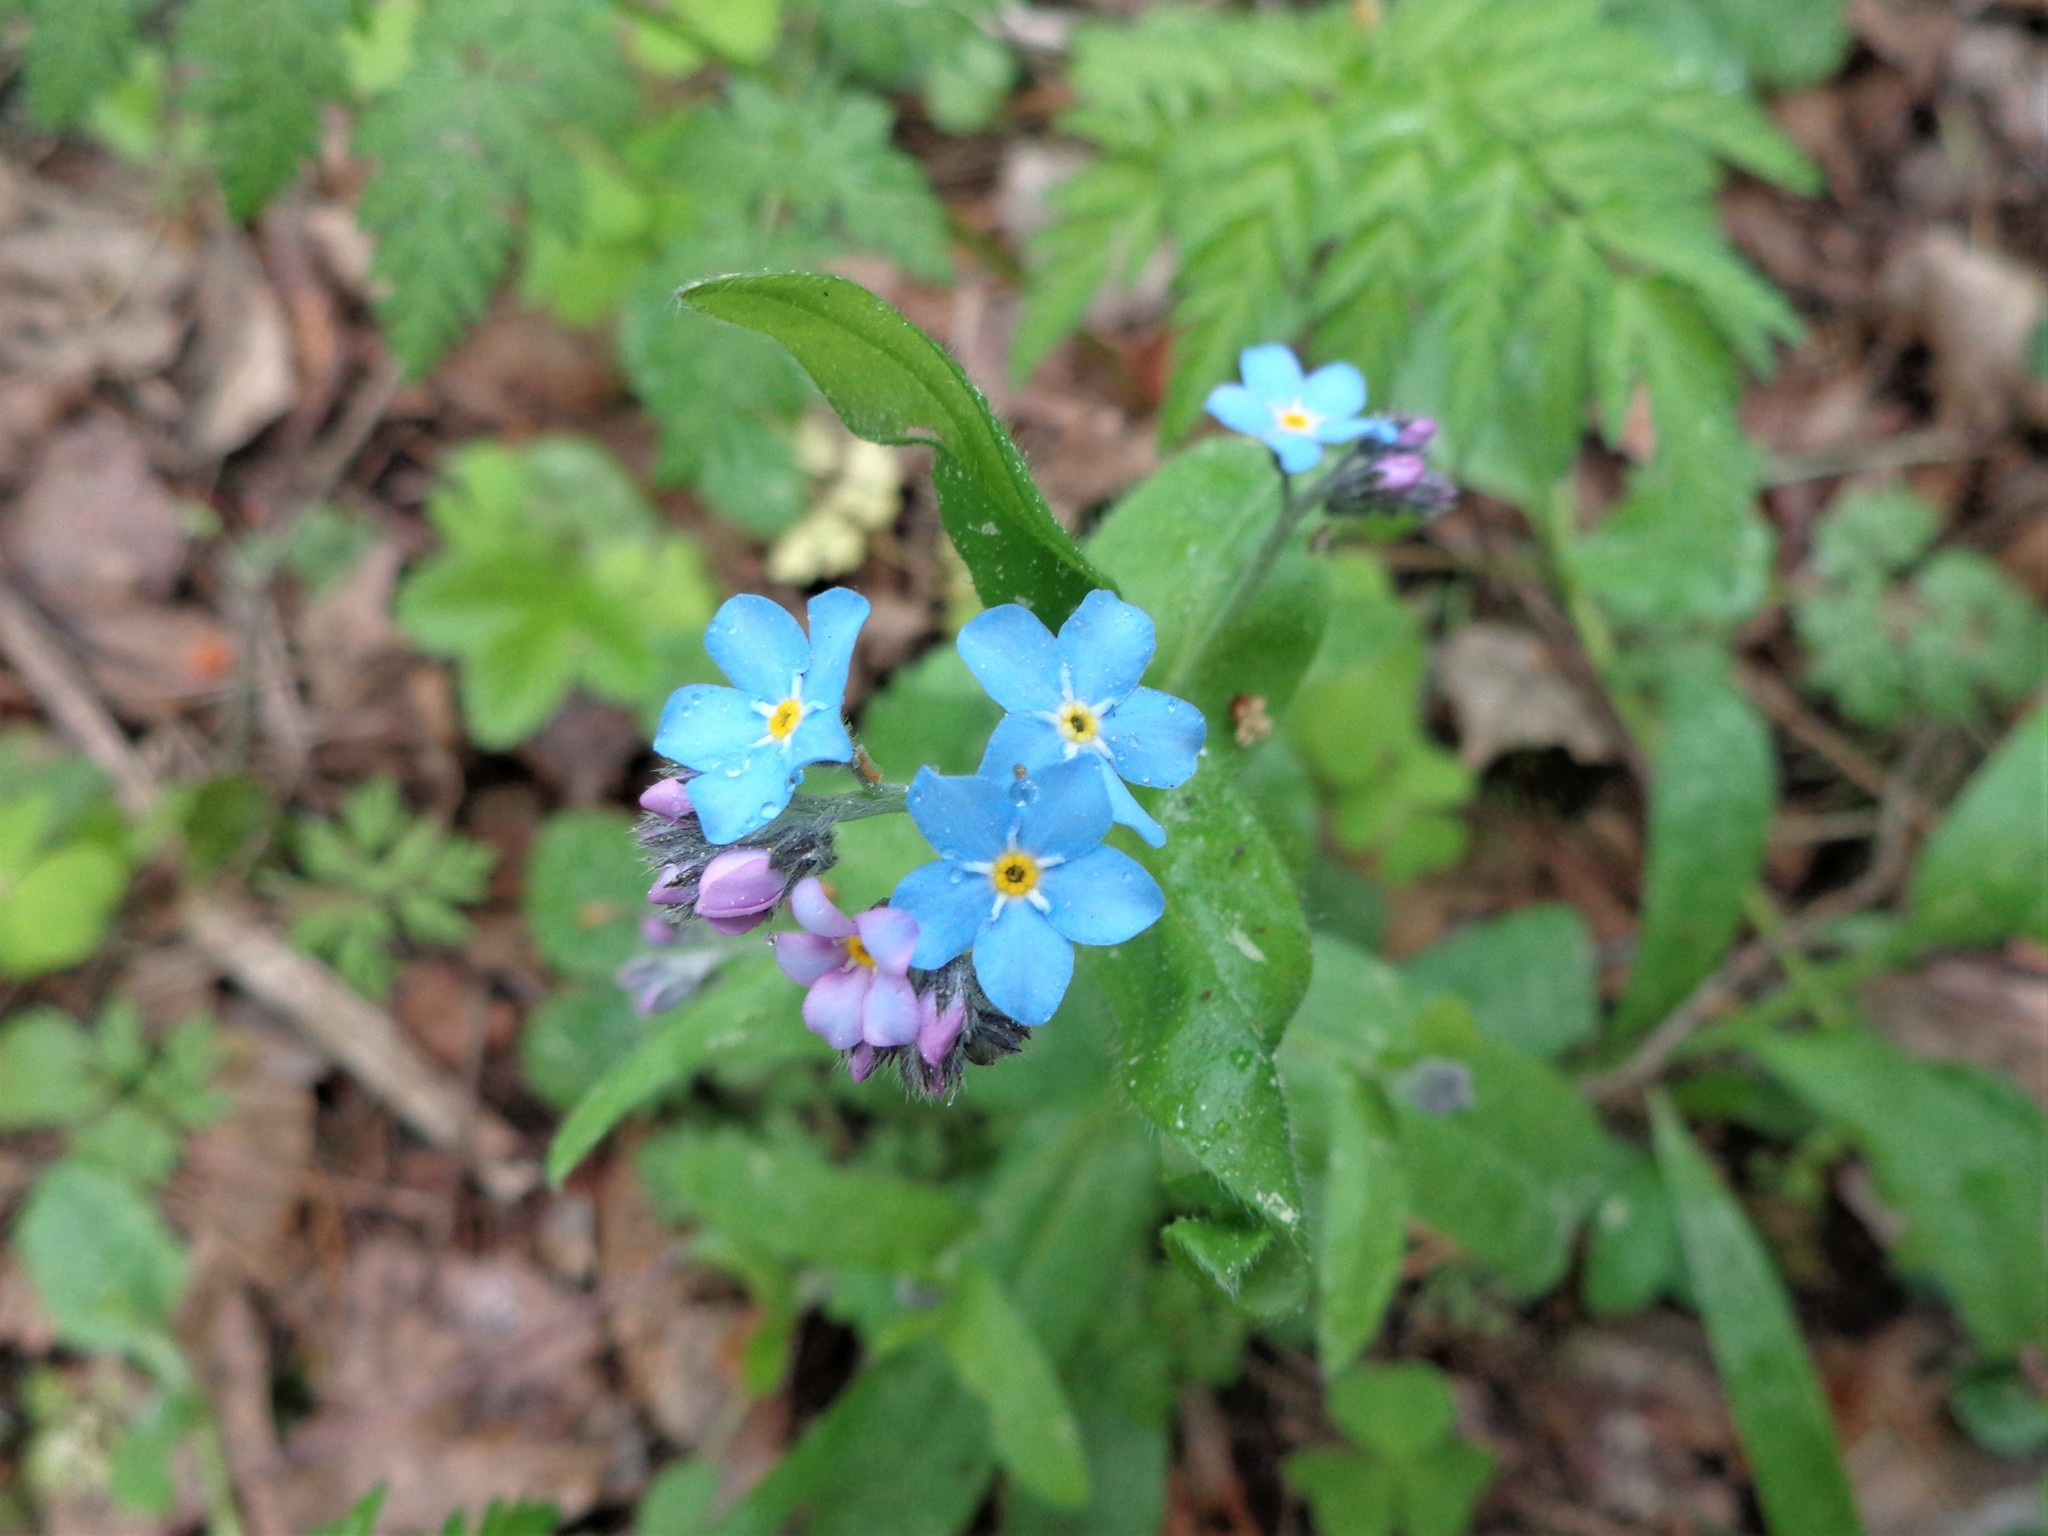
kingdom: Plantae
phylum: Tracheophyta
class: Magnoliopsida
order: Boraginales
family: Boraginaceae
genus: Myosotis
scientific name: Myosotis sylvatica
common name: Wood forget-me-not
